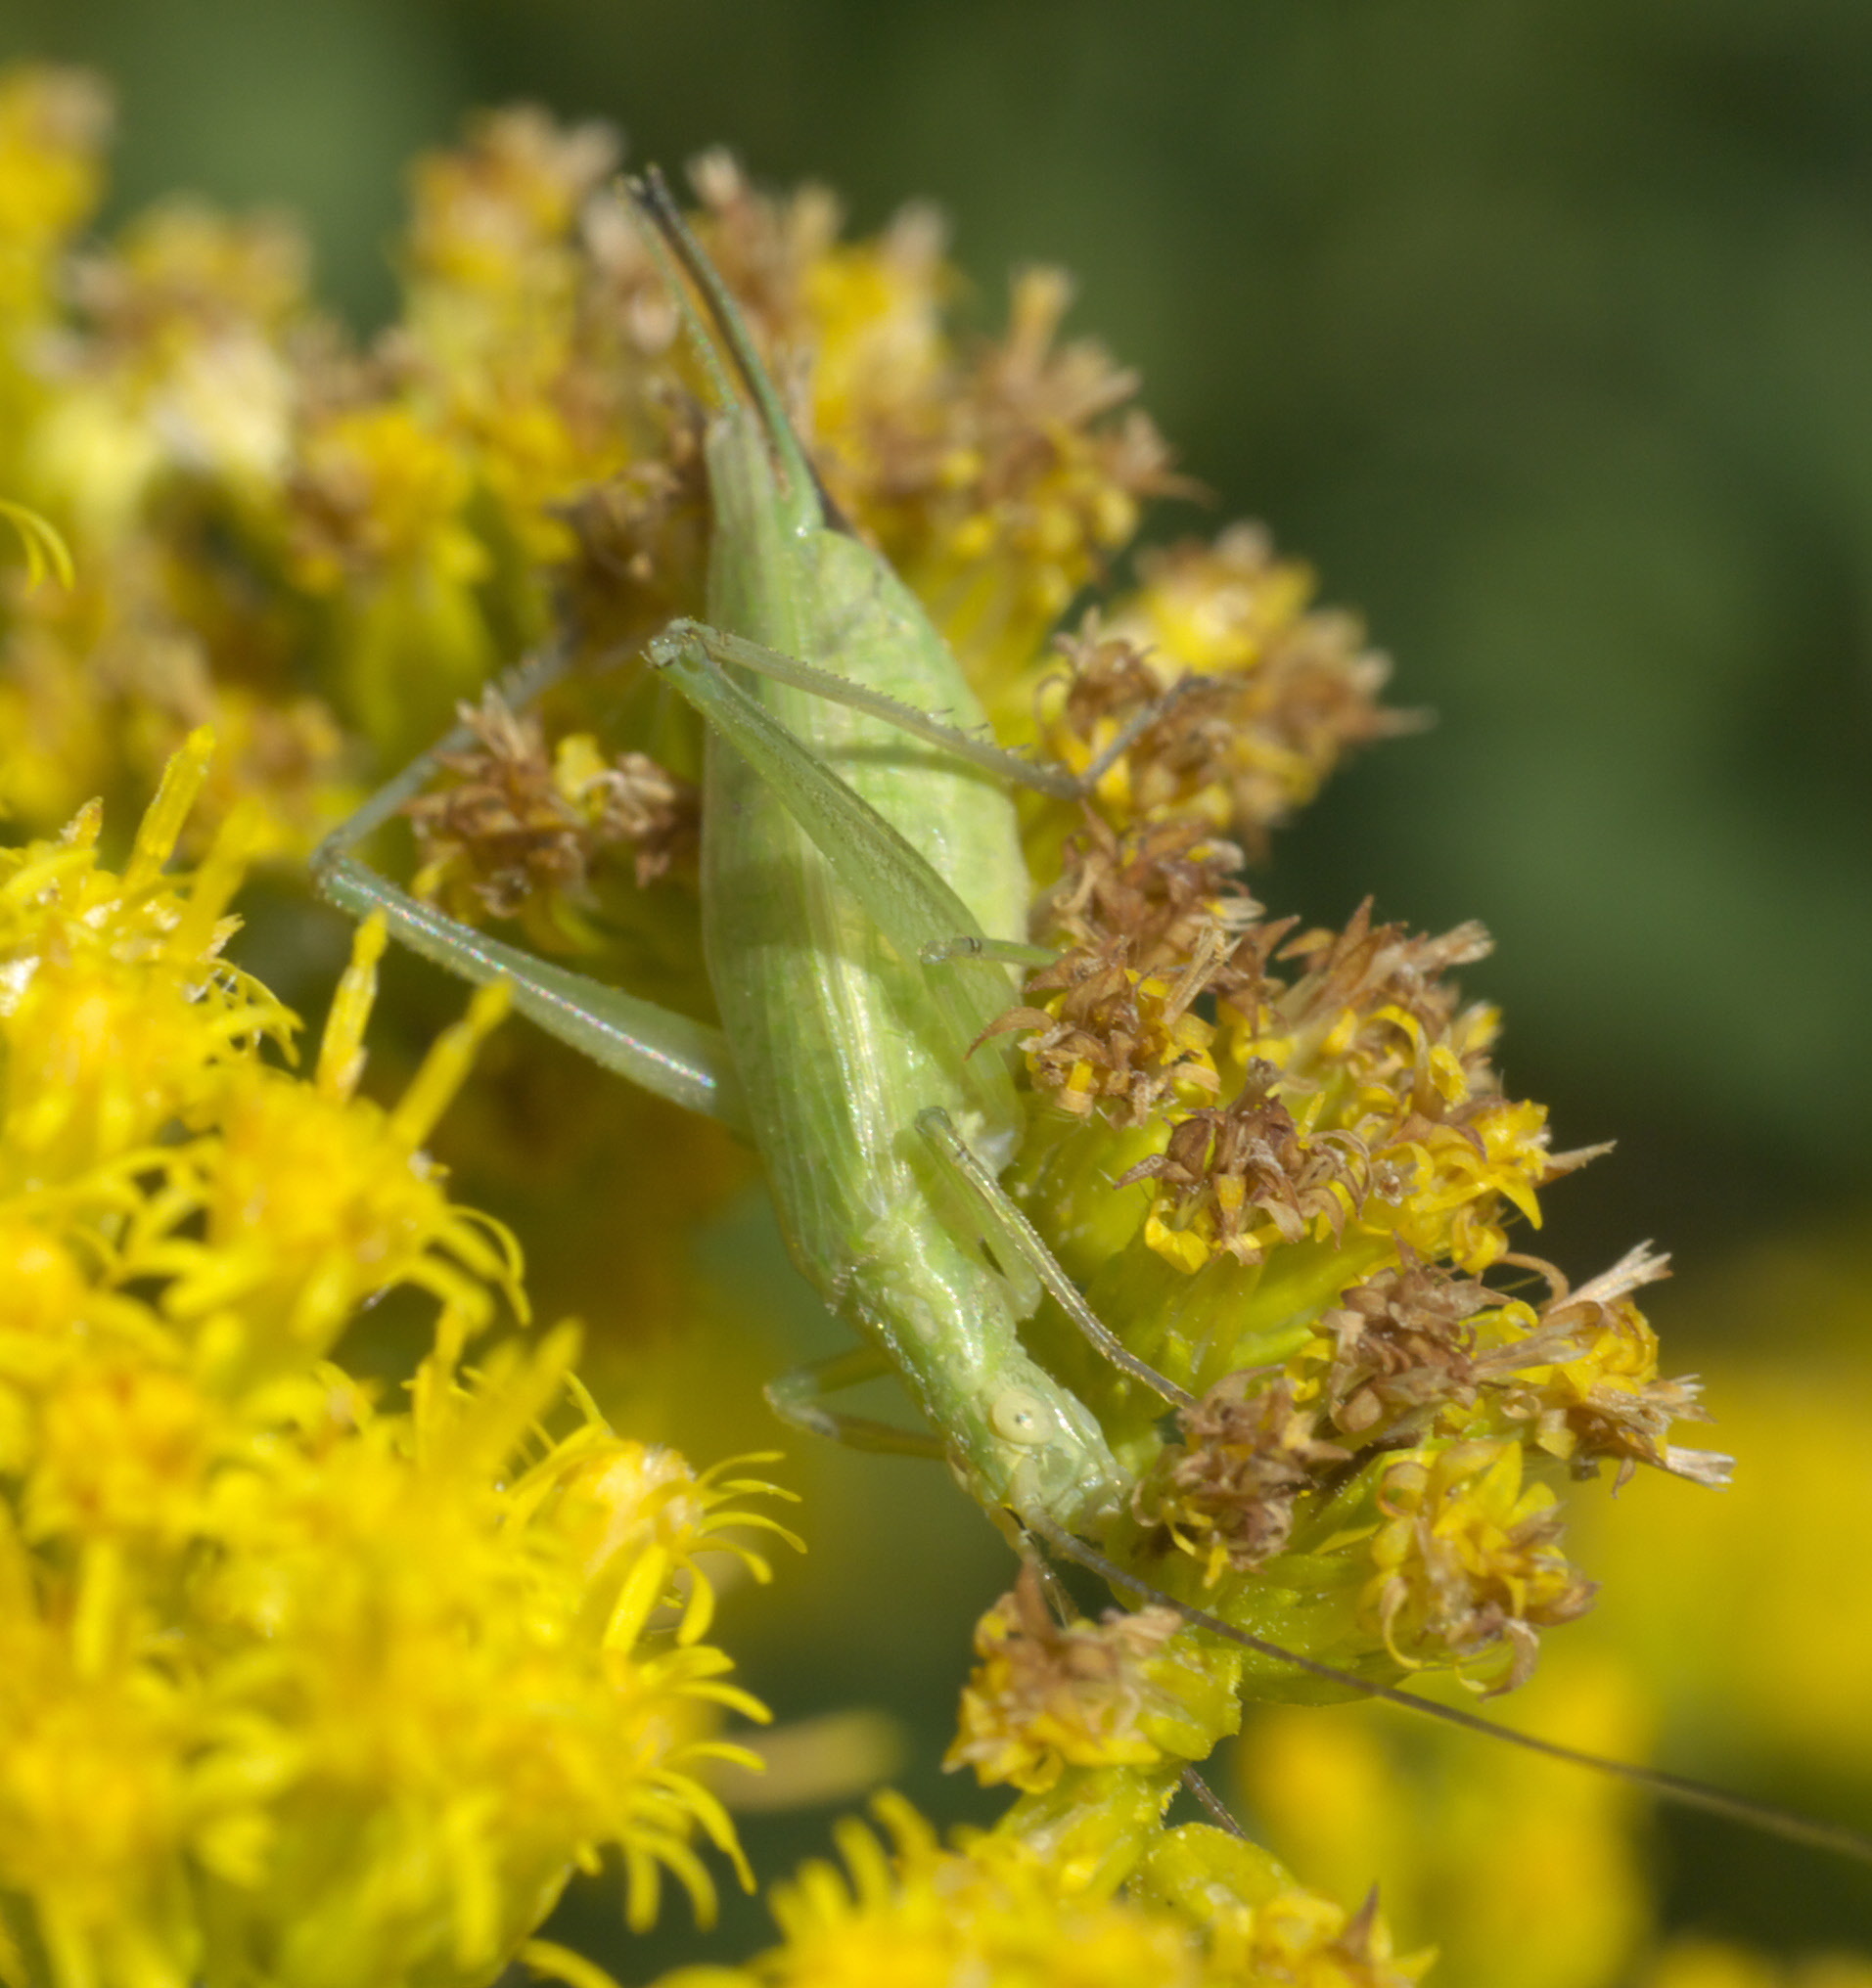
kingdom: Animalia
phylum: Arthropoda
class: Insecta
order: Orthoptera
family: Gryllidae
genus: Oecanthus
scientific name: Oecanthus celerinictus
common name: Fast-calling tree cricket
